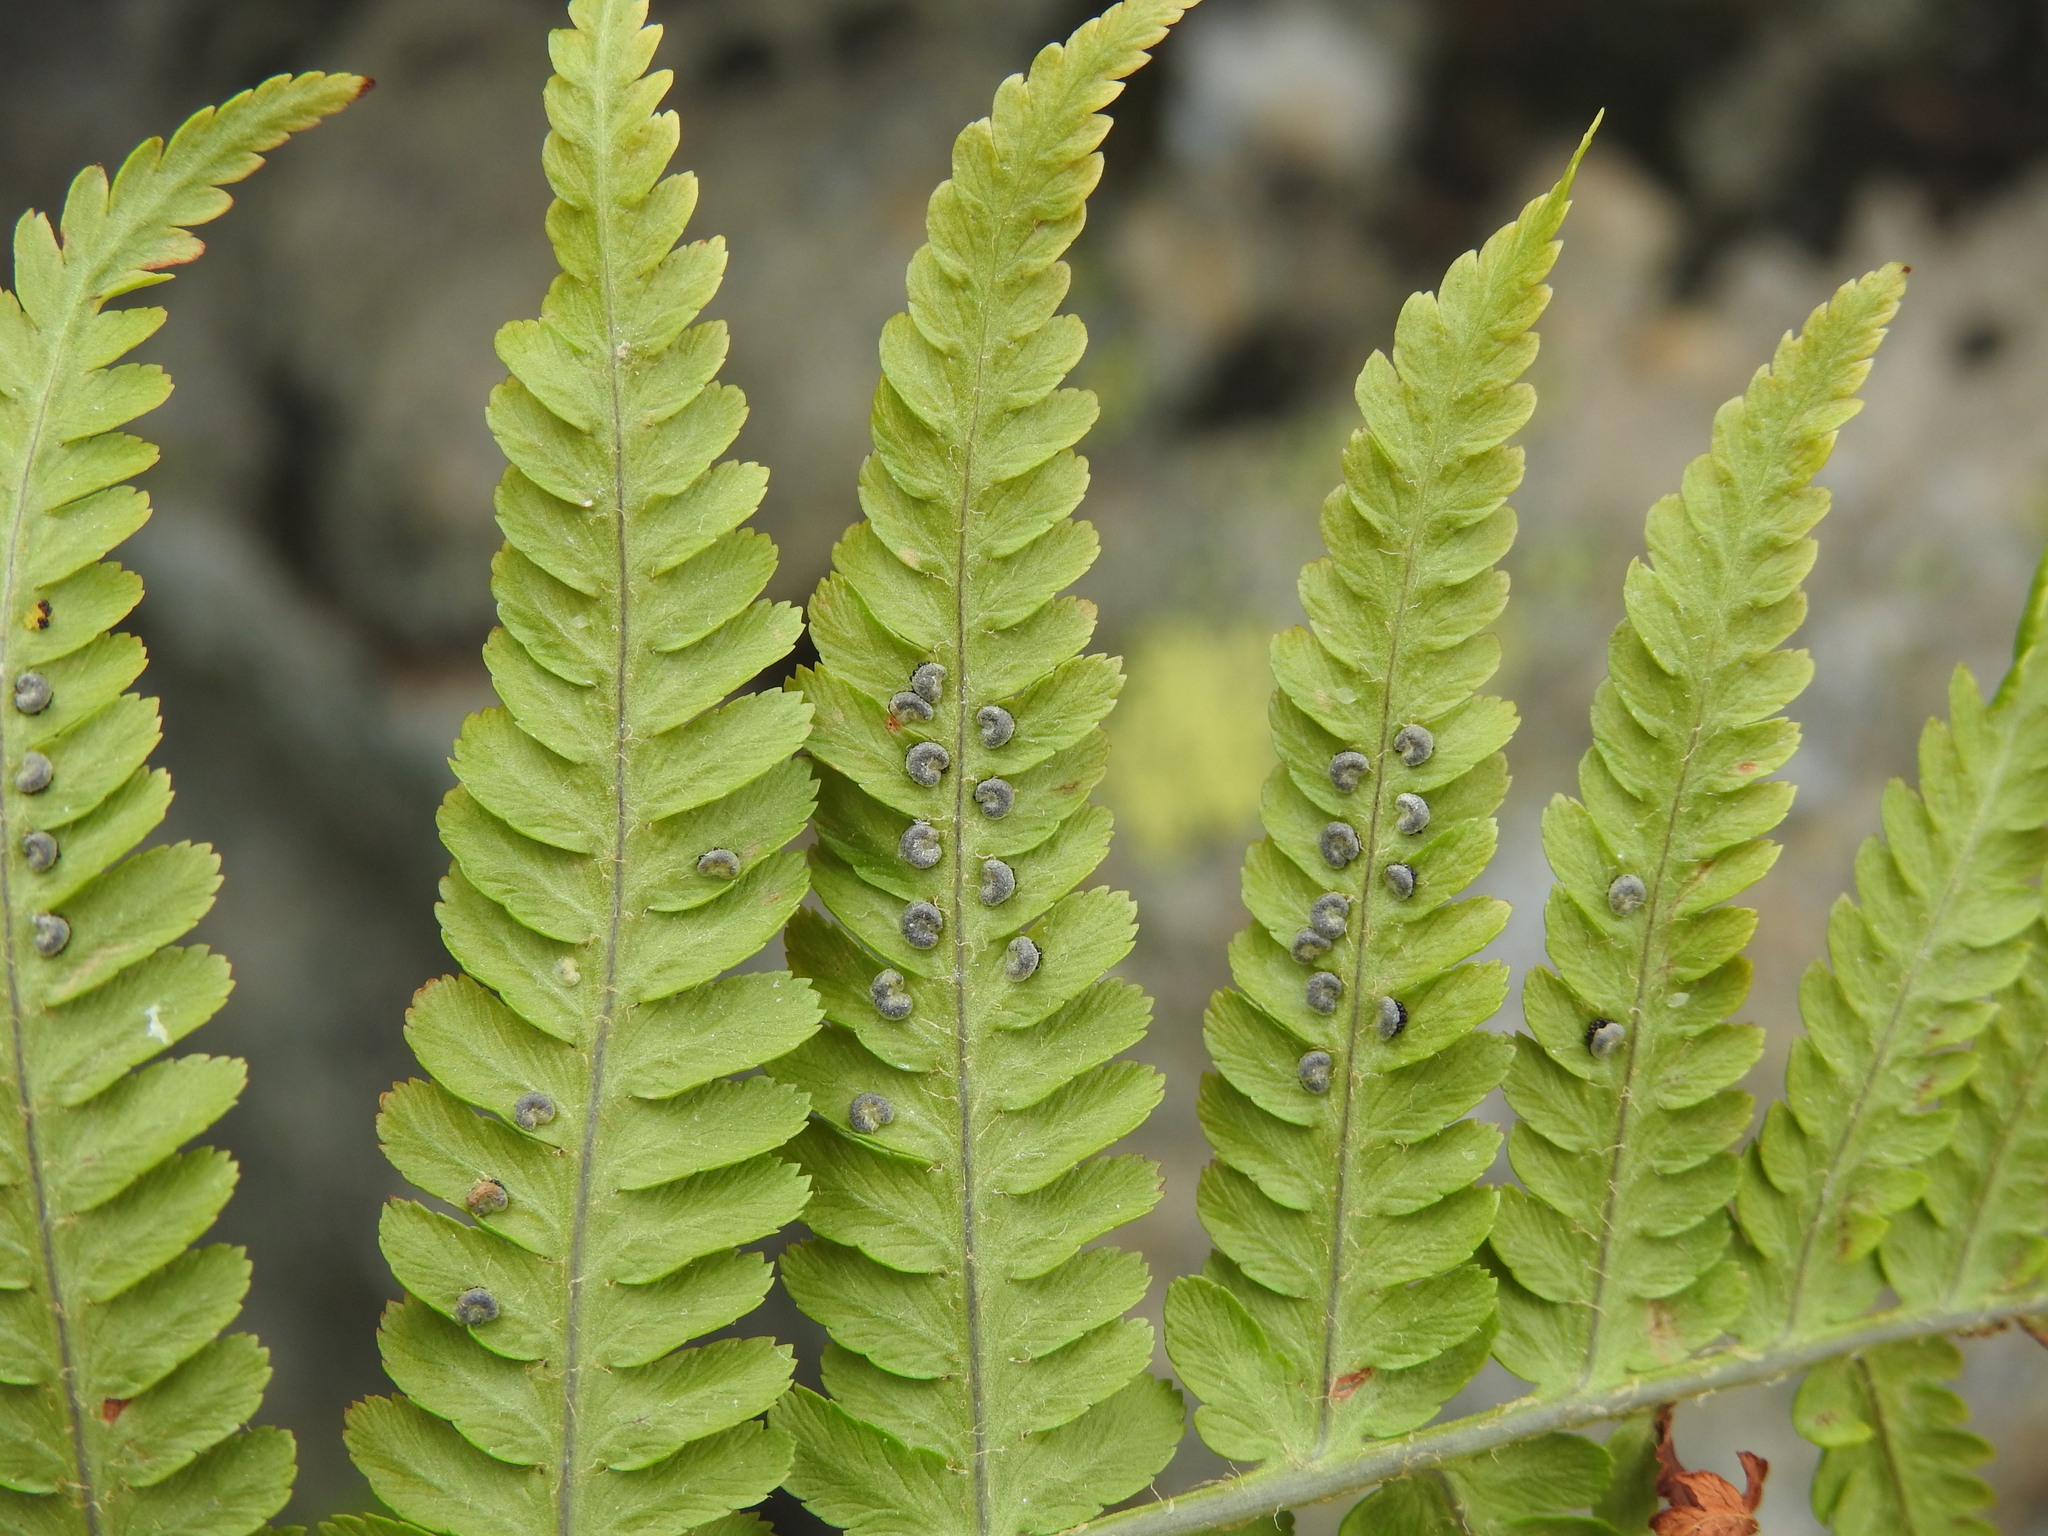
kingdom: Plantae
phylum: Tracheophyta
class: Polypodiopsida
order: Polypodiales
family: Dryopteridaceae
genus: Dryopteris
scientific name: Dryopteris filix-mas
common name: Male fern
